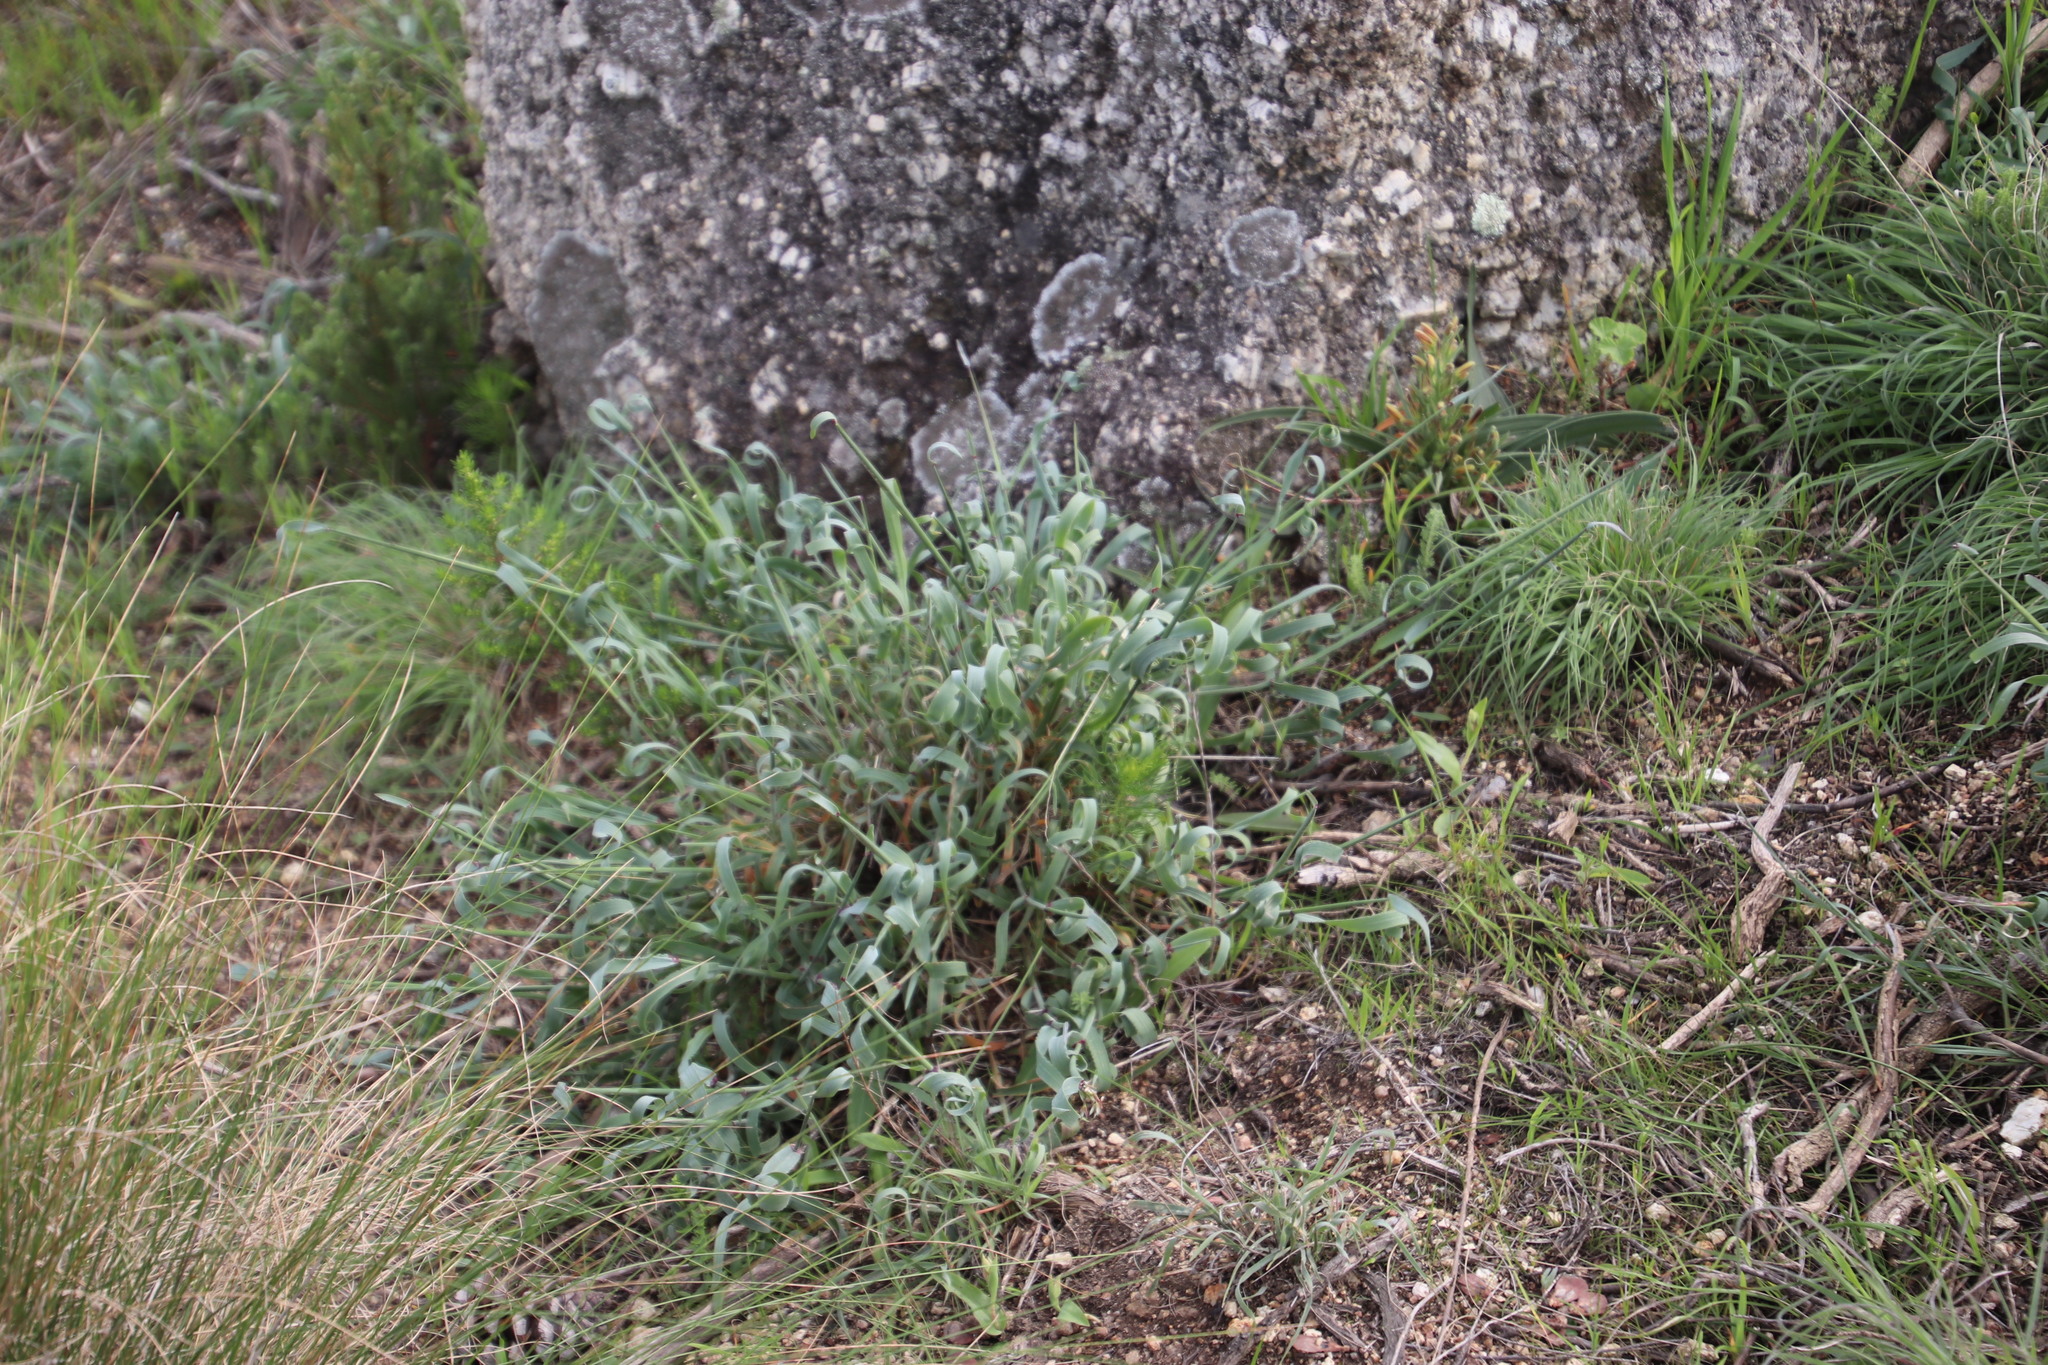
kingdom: Plantae
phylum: Tracheophyta
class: Liliopsida
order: Poales
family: Poaceae
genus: Ehrharta
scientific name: Ehrharta calycina
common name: Perennial veldtgrass
